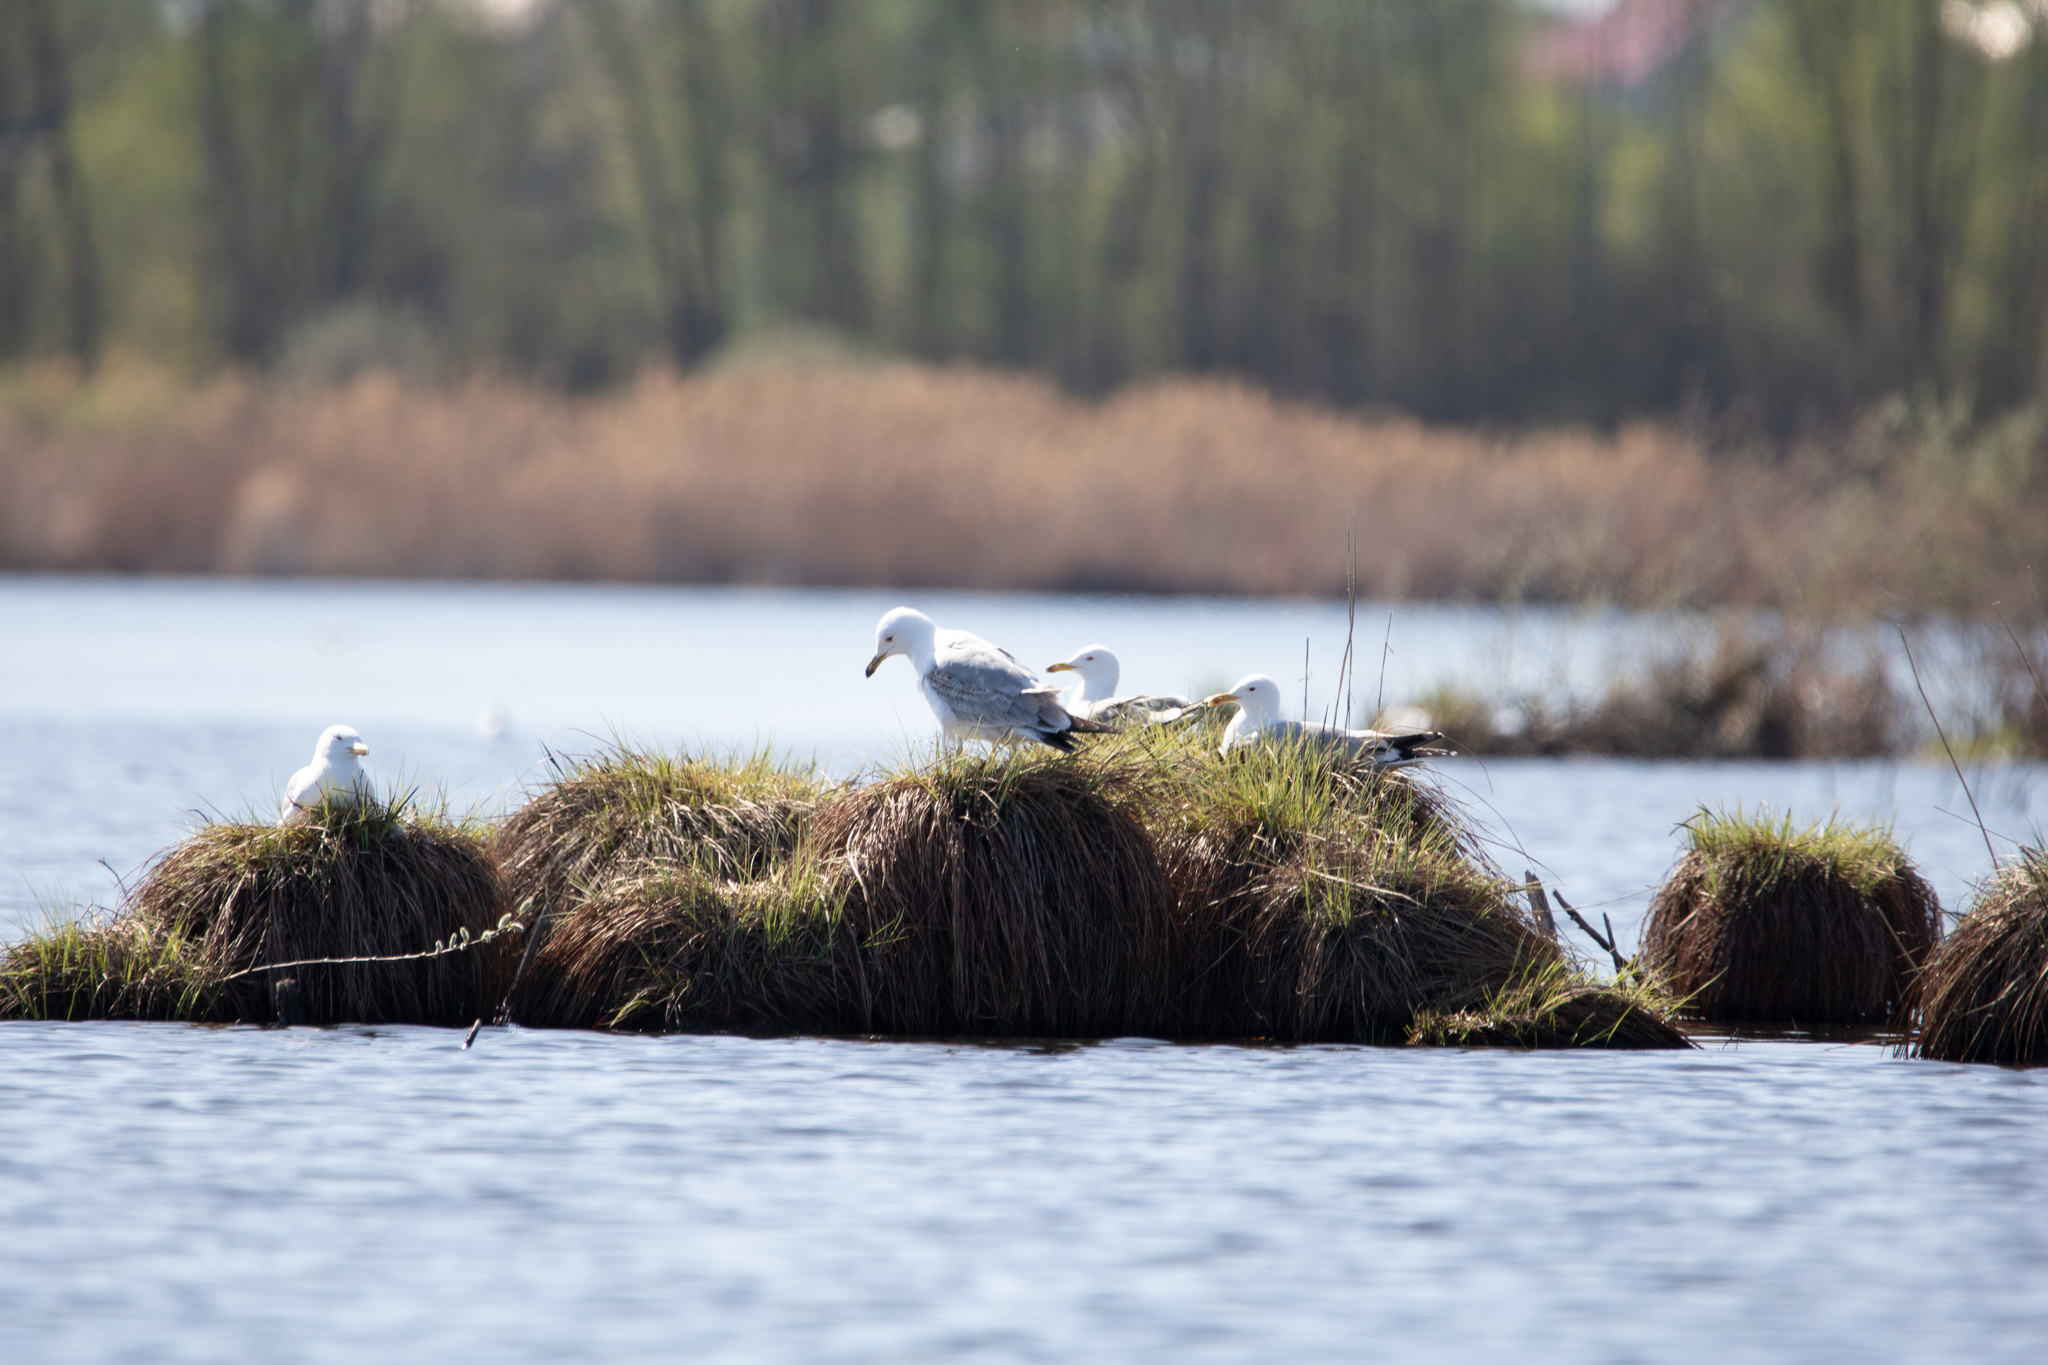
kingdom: Animalia
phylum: Chordata
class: Aves
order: Charadriiformes
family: Laridae
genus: Larus
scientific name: Larus cachinnans
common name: Caspian gull
